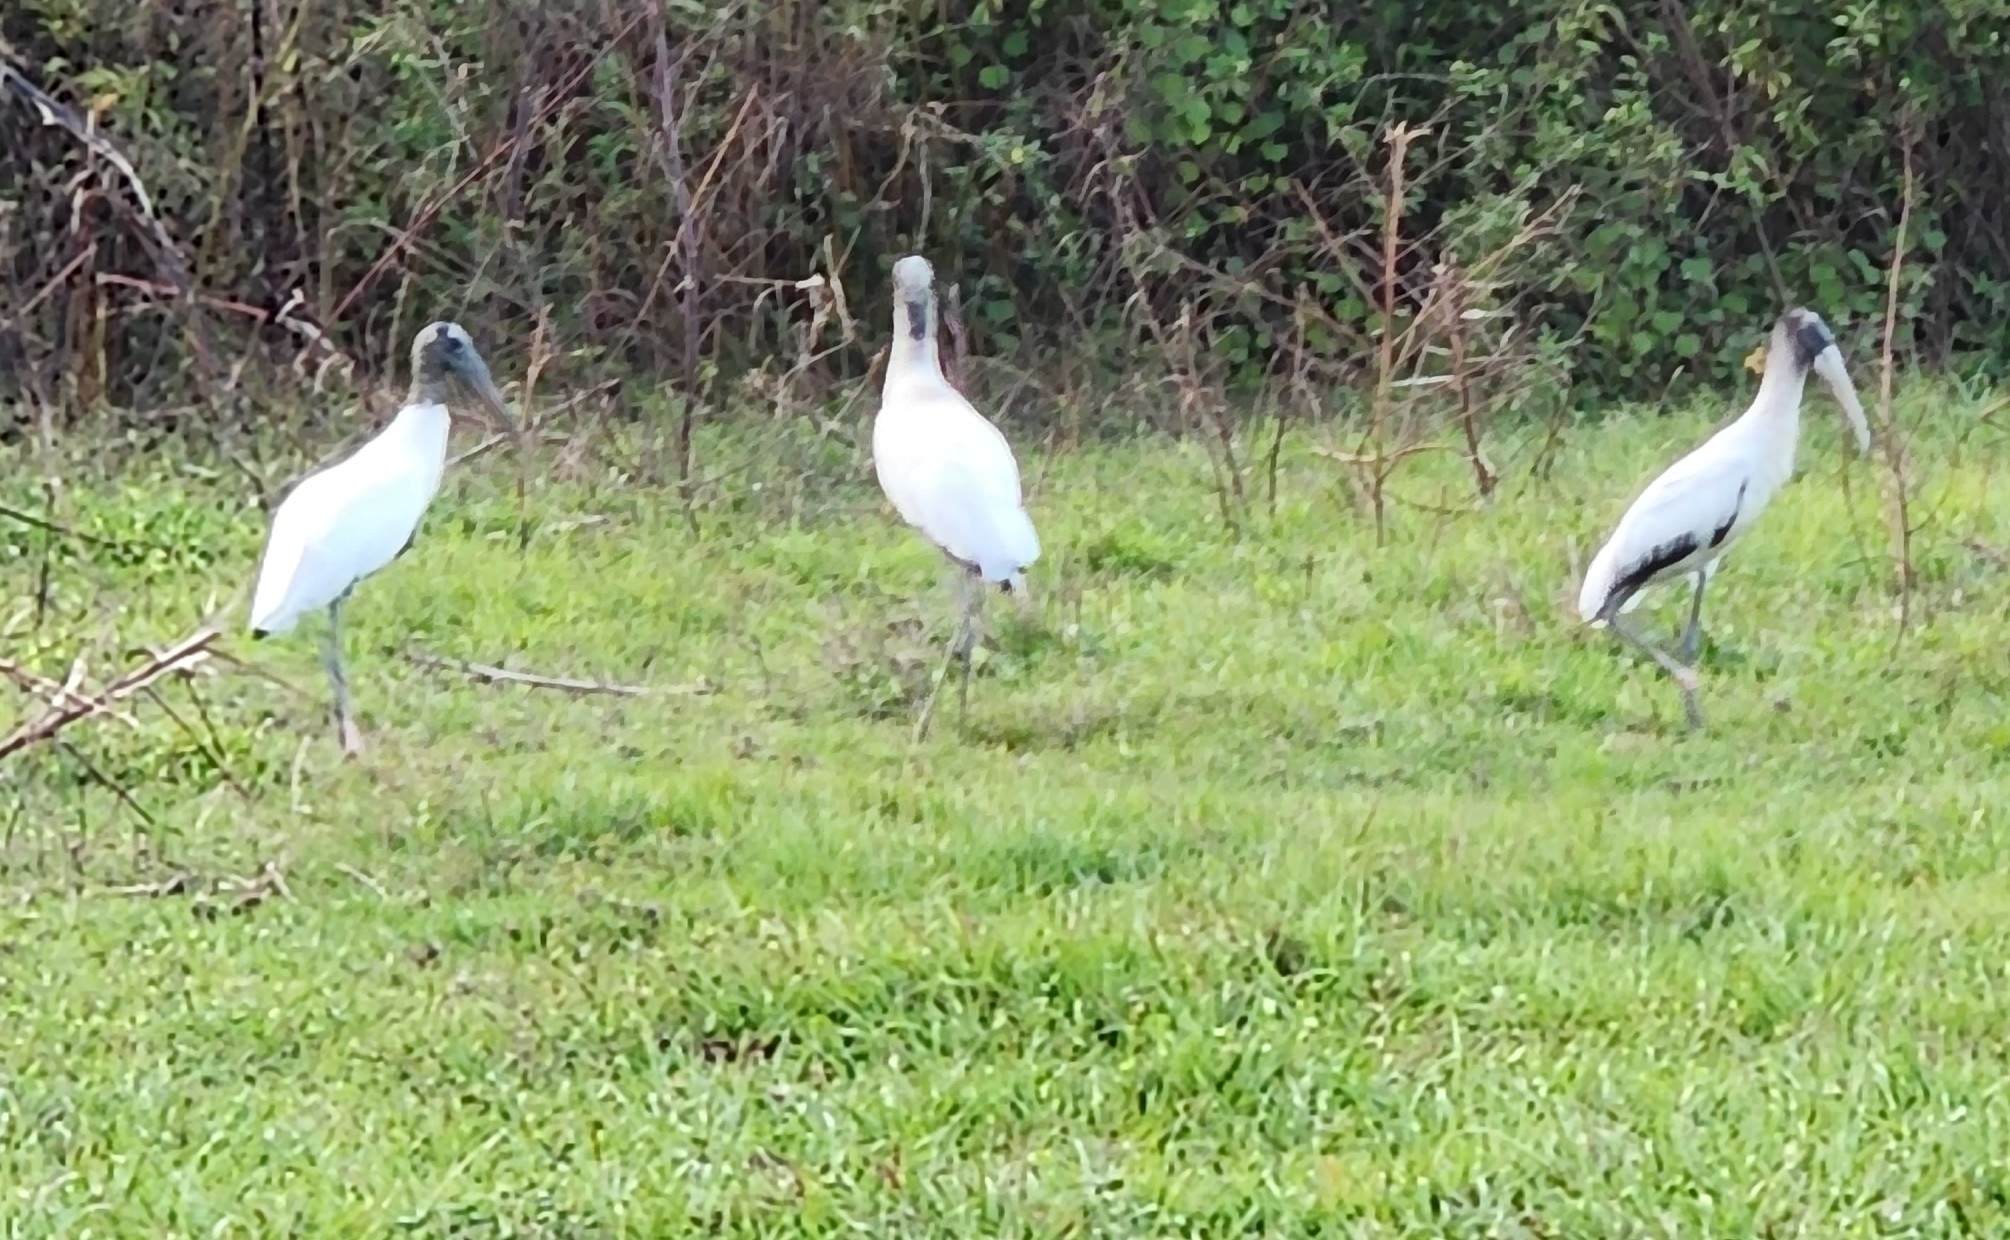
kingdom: Animalia
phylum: Chordata
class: Aves
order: Ciconiiformes
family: Ciconiidae
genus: Mycteria
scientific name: Mycteria americana
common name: Wood stork
